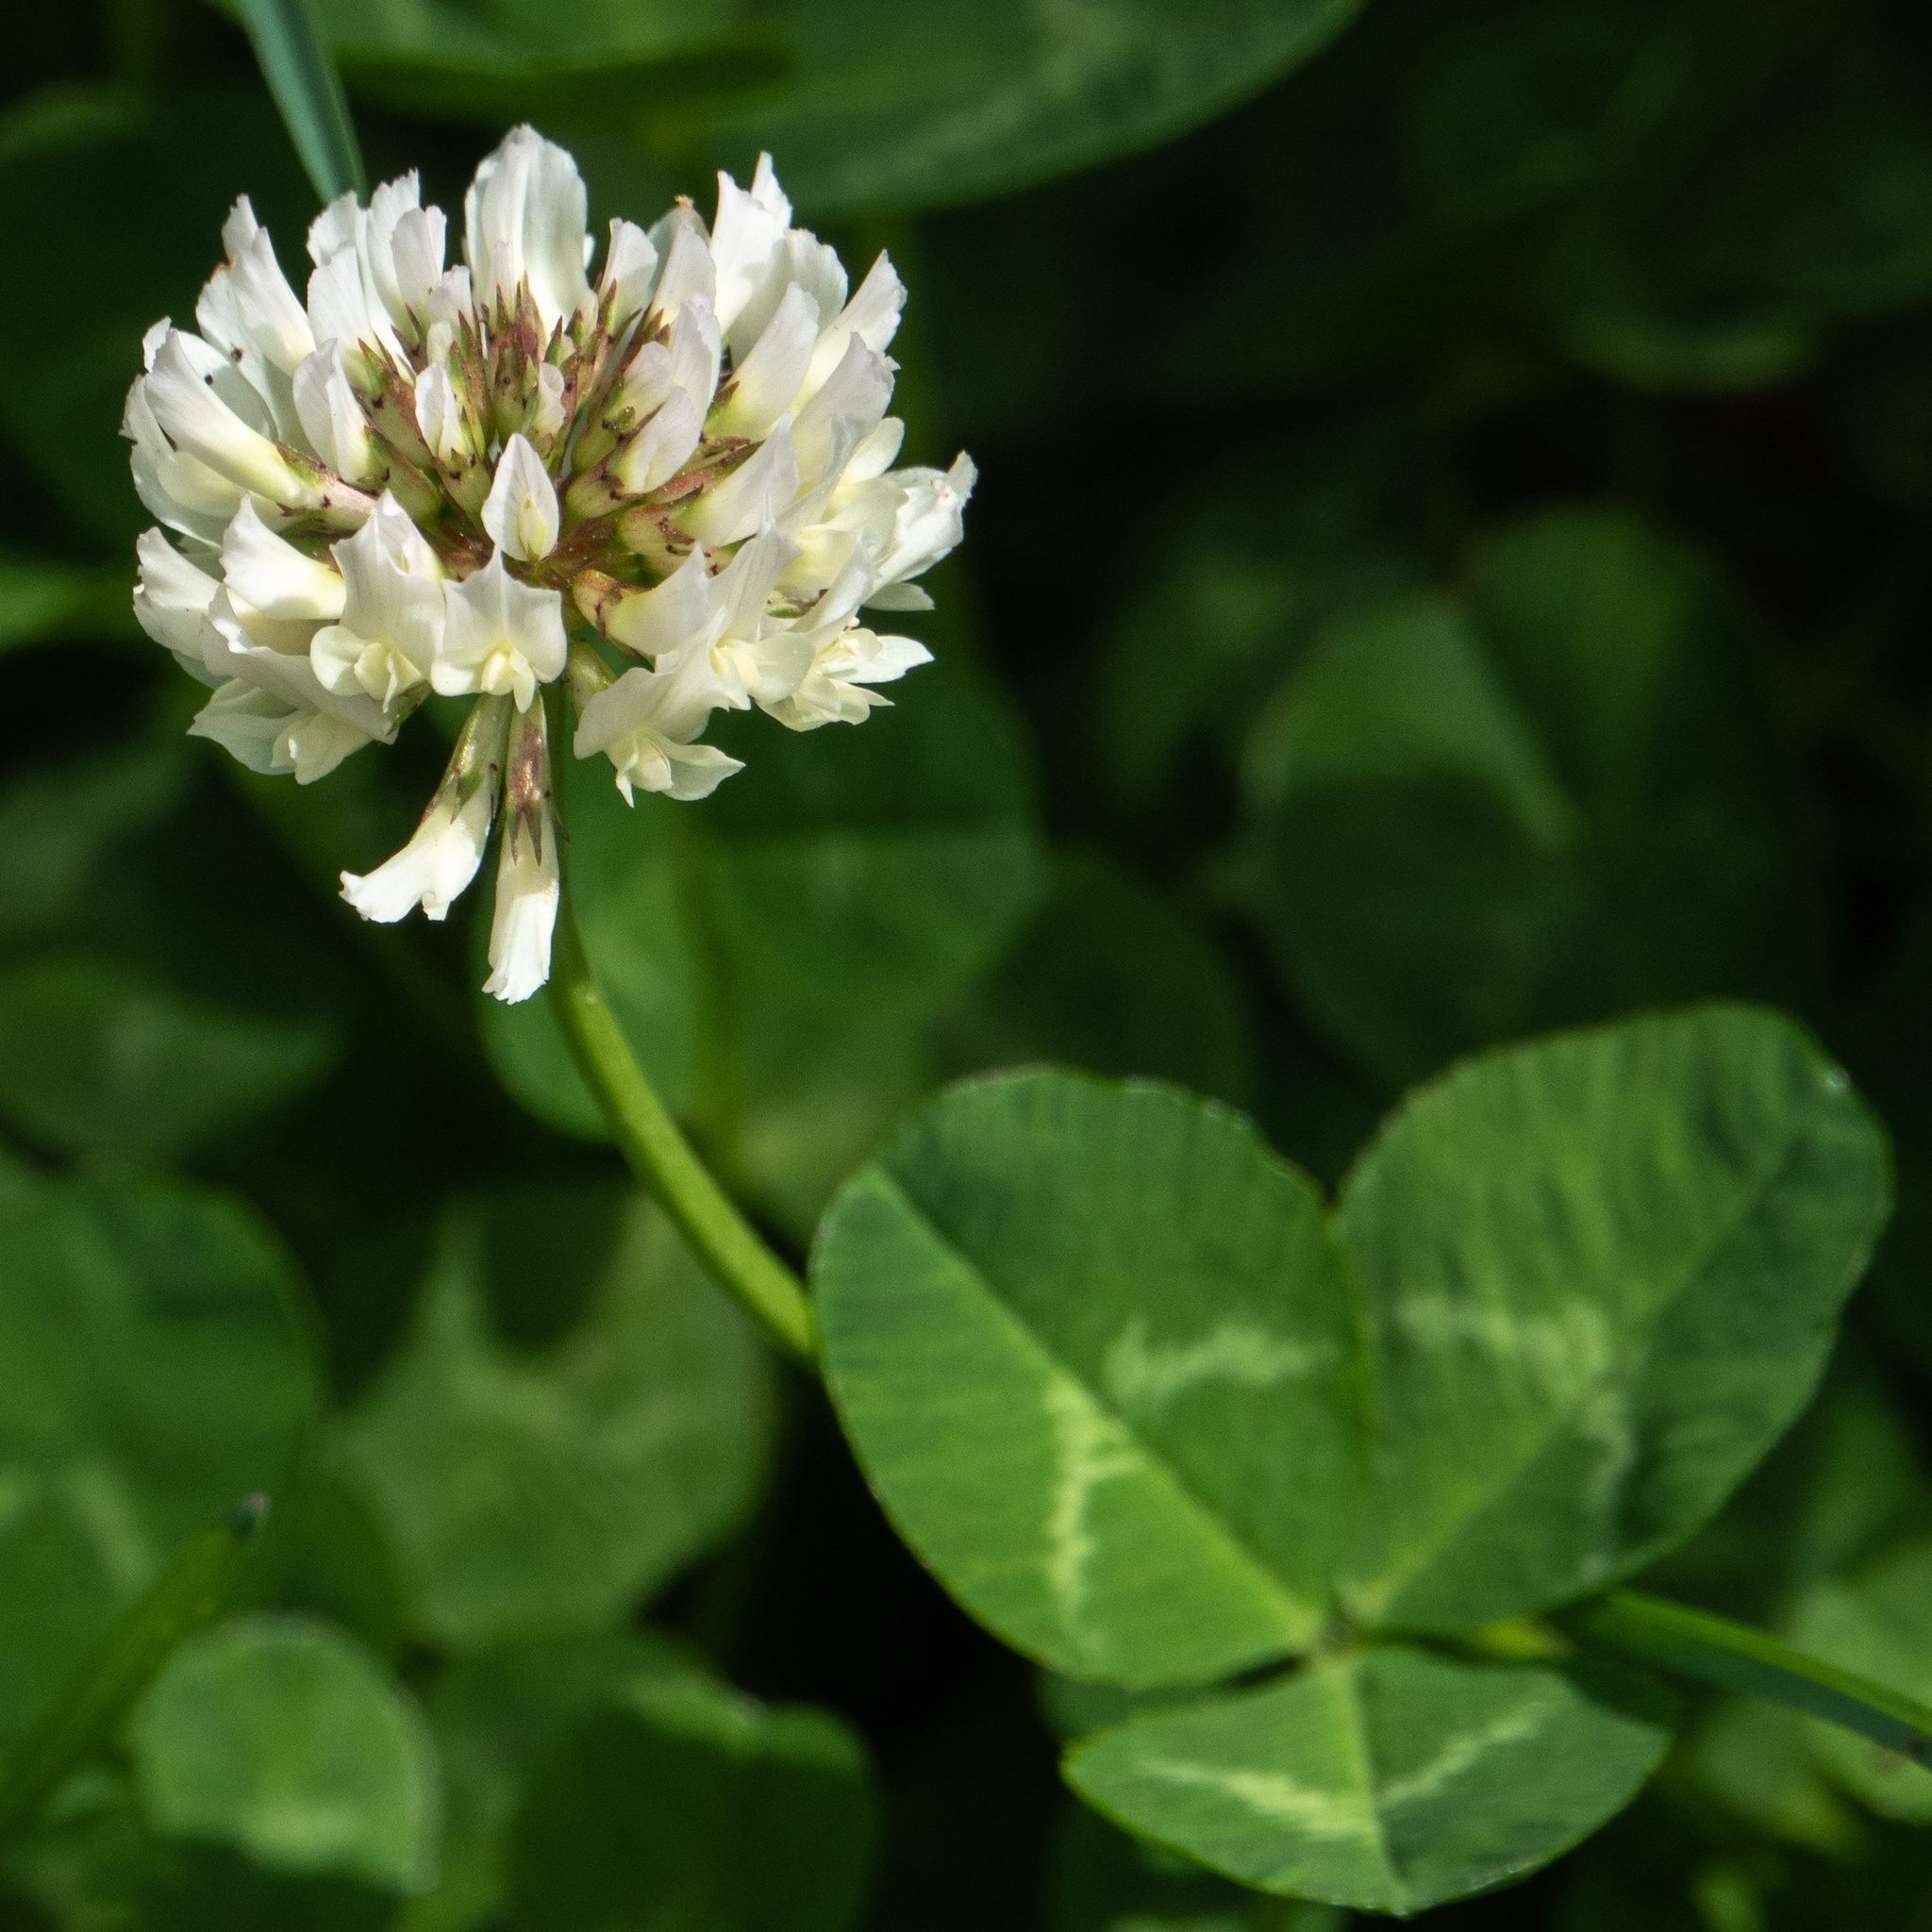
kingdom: Plantae
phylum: Tracheophyta
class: Magnoliopsida
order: Fabales
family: Fabaceae
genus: Trifolium
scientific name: Trifolium repens
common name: White clover
